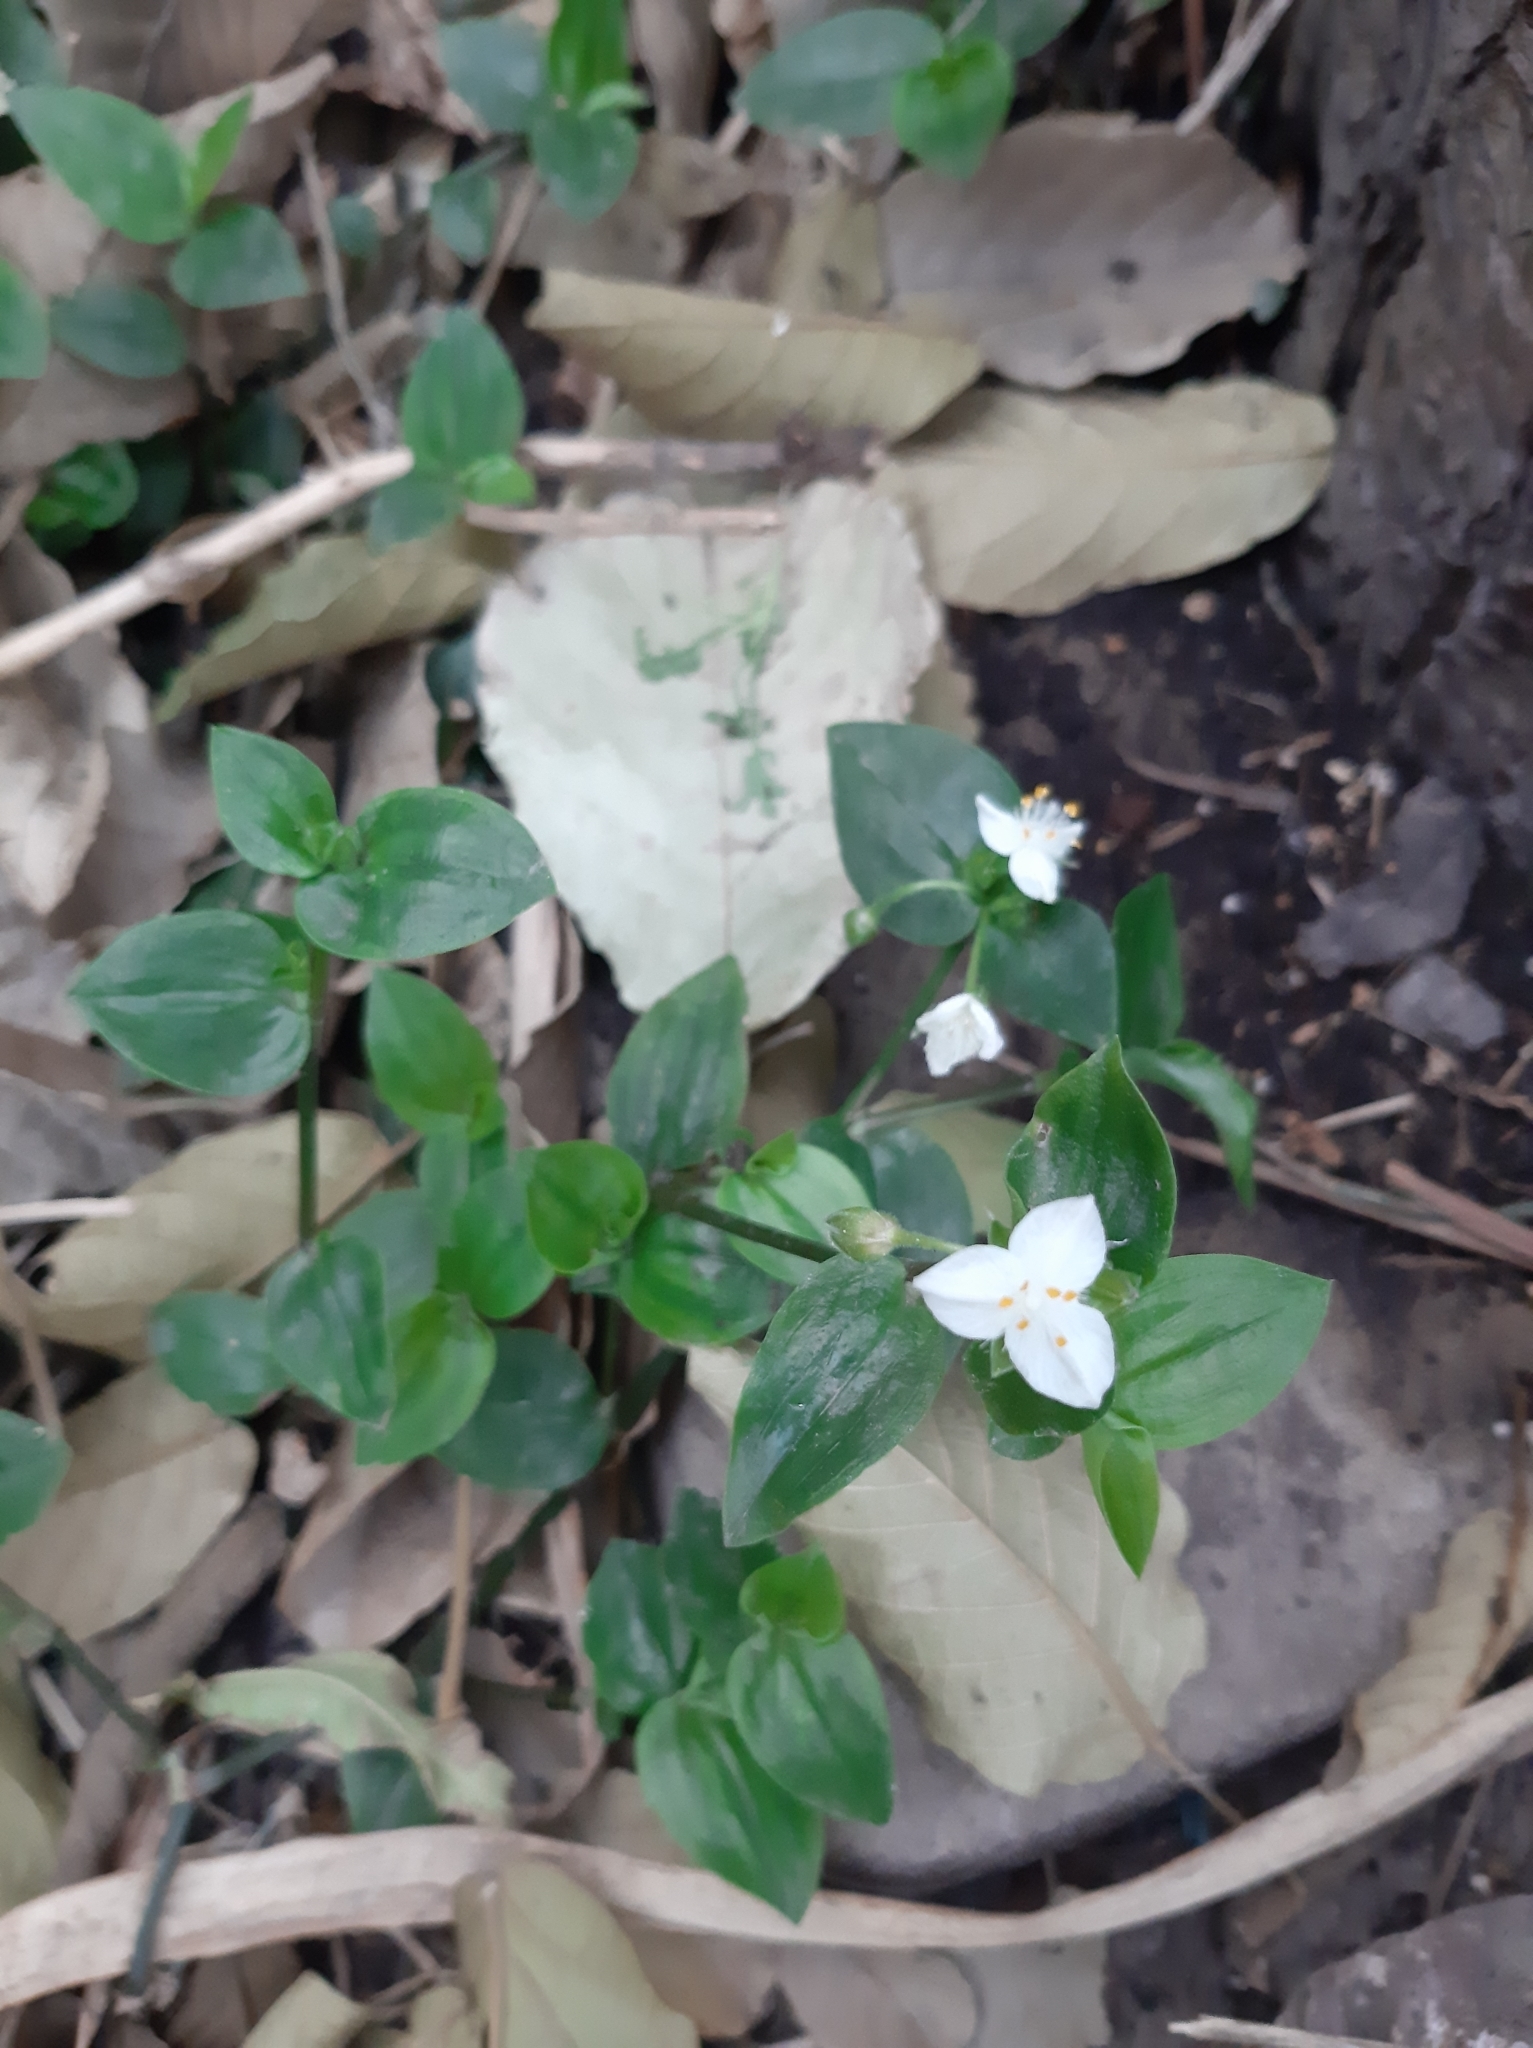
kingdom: Plantae
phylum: Tracheophyta
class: Liliopsida
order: Commelinales
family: Commelinaceae
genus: Tradescantia
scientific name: Tradescantia fluminensis
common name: Wandering-jew
